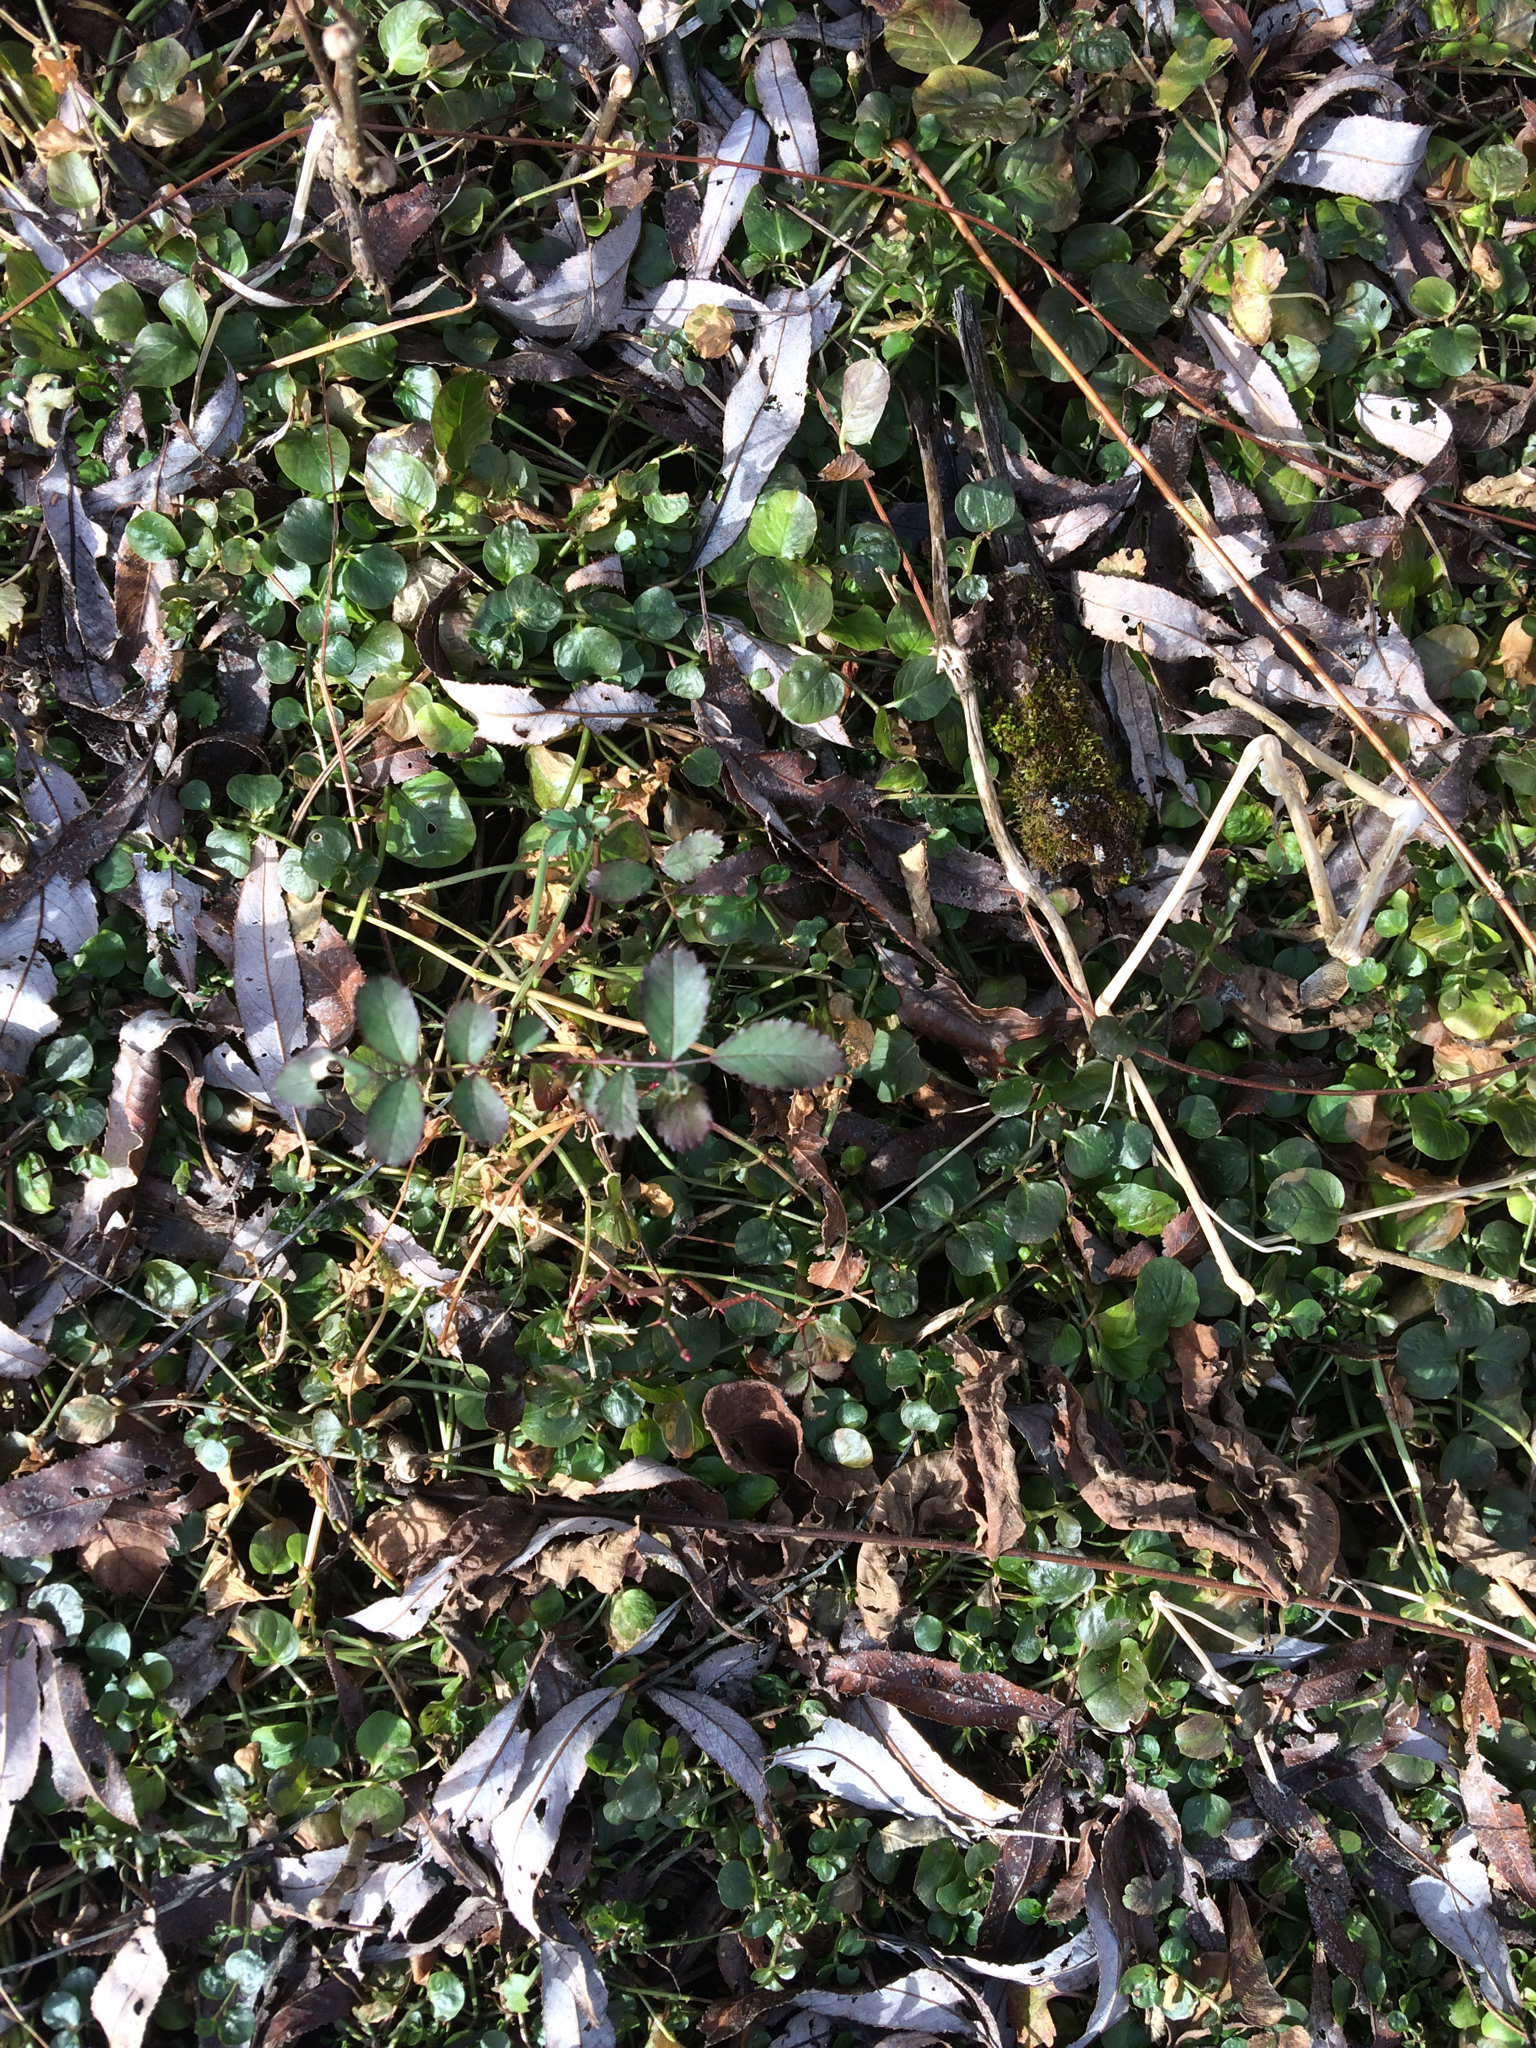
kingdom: Plantae
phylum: Tracheophyta
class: Magnoliopsida
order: Ericales
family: Primulaceae
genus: Lysimachia
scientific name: Lysimachia nummularia
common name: Moneywort
